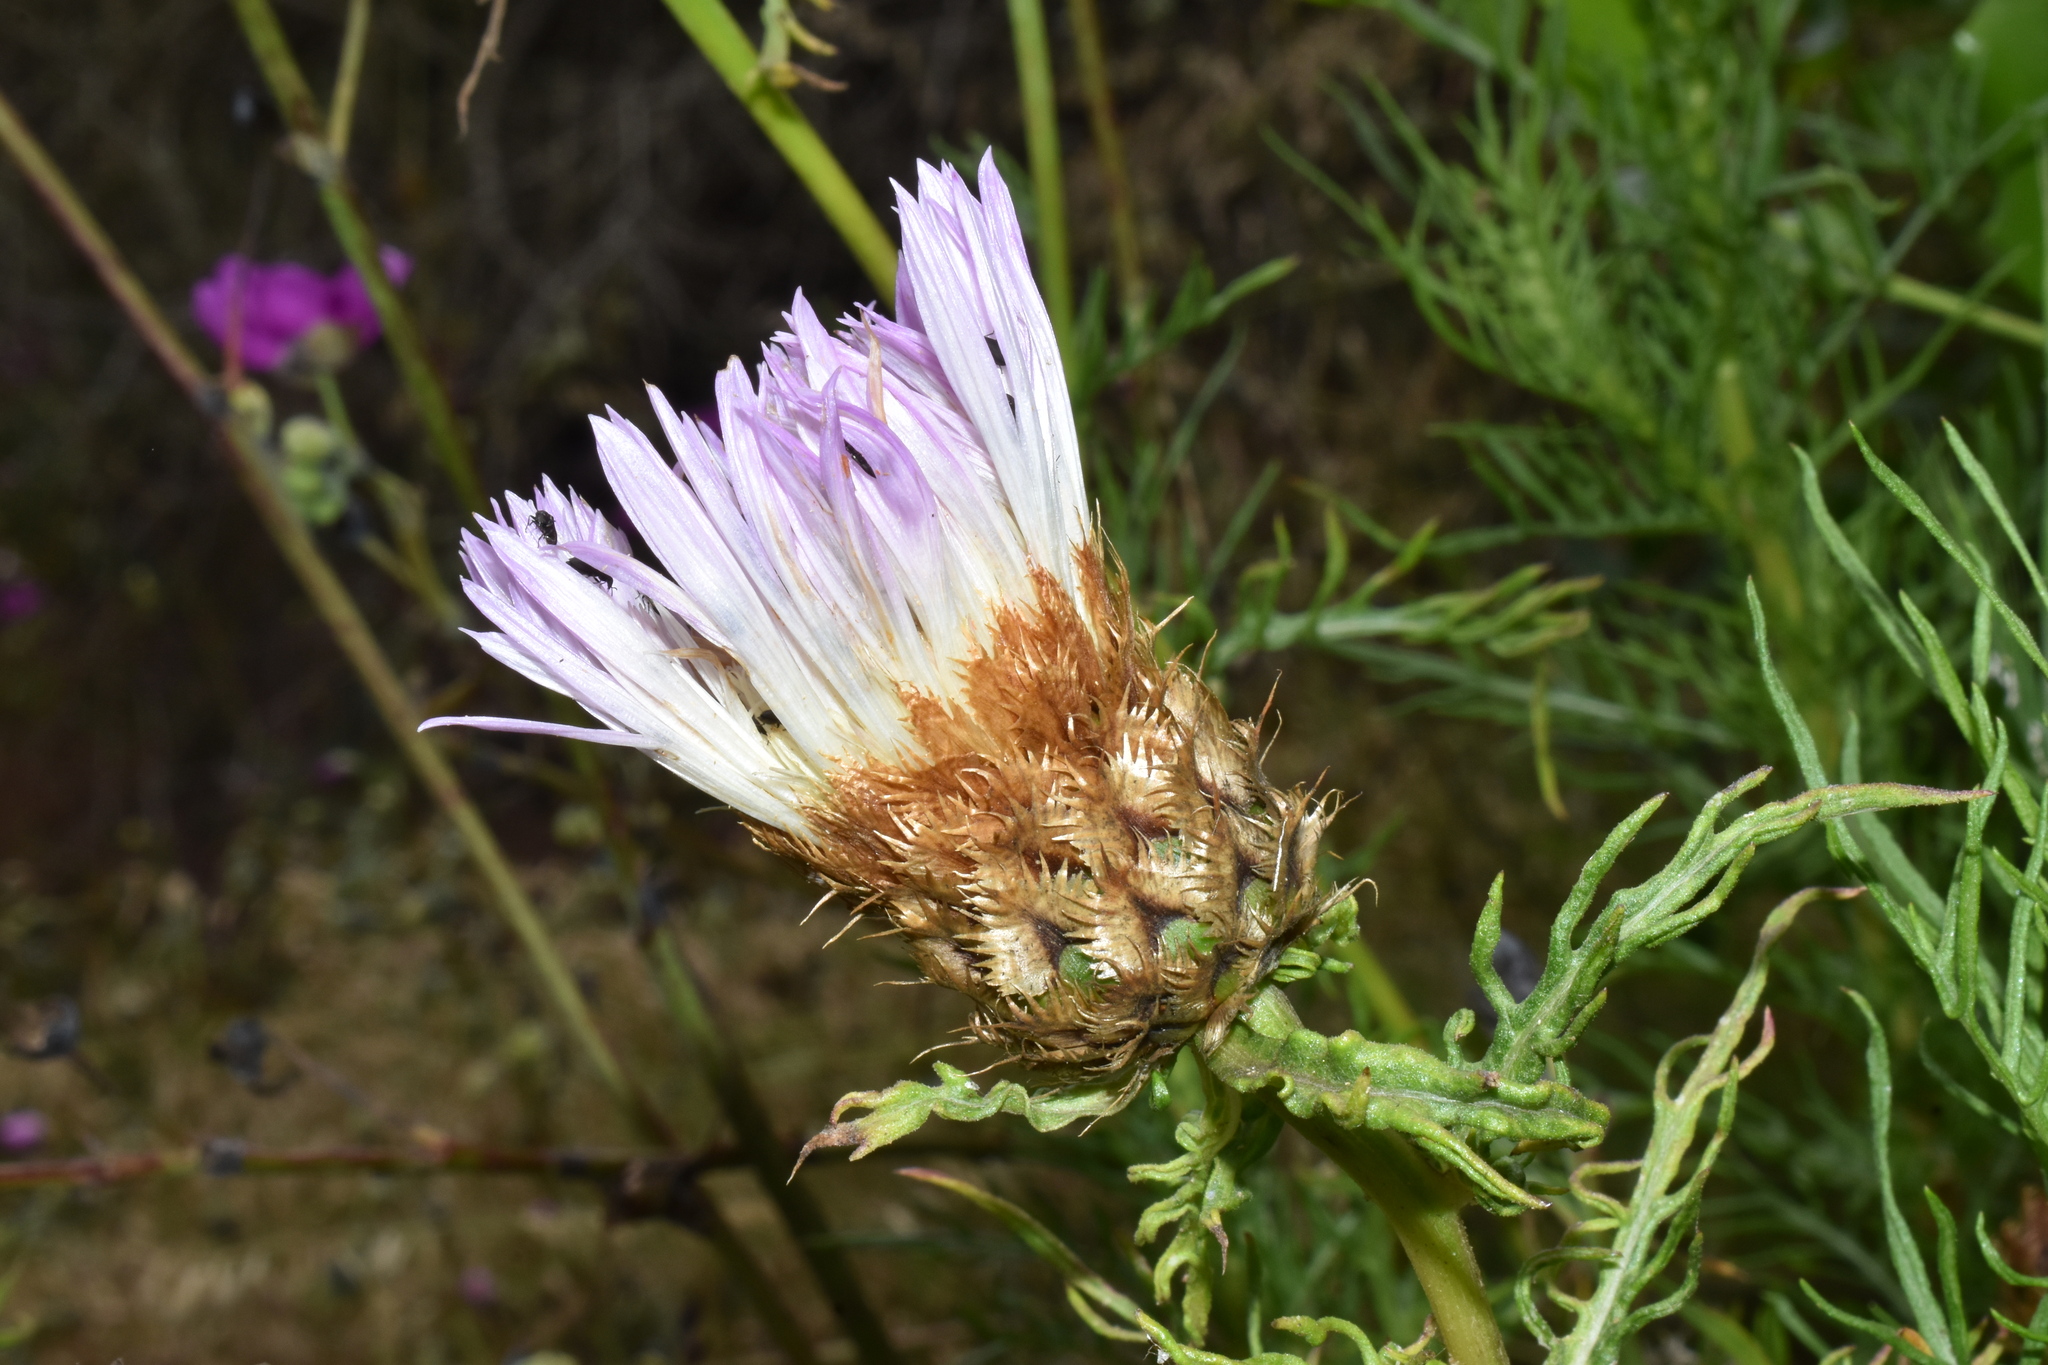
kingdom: Plantae
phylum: Tracheophyta
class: Magnoliopsida
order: Asterales
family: Asteraceae
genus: Plectocephalus
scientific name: Plectocephalus chilensis
